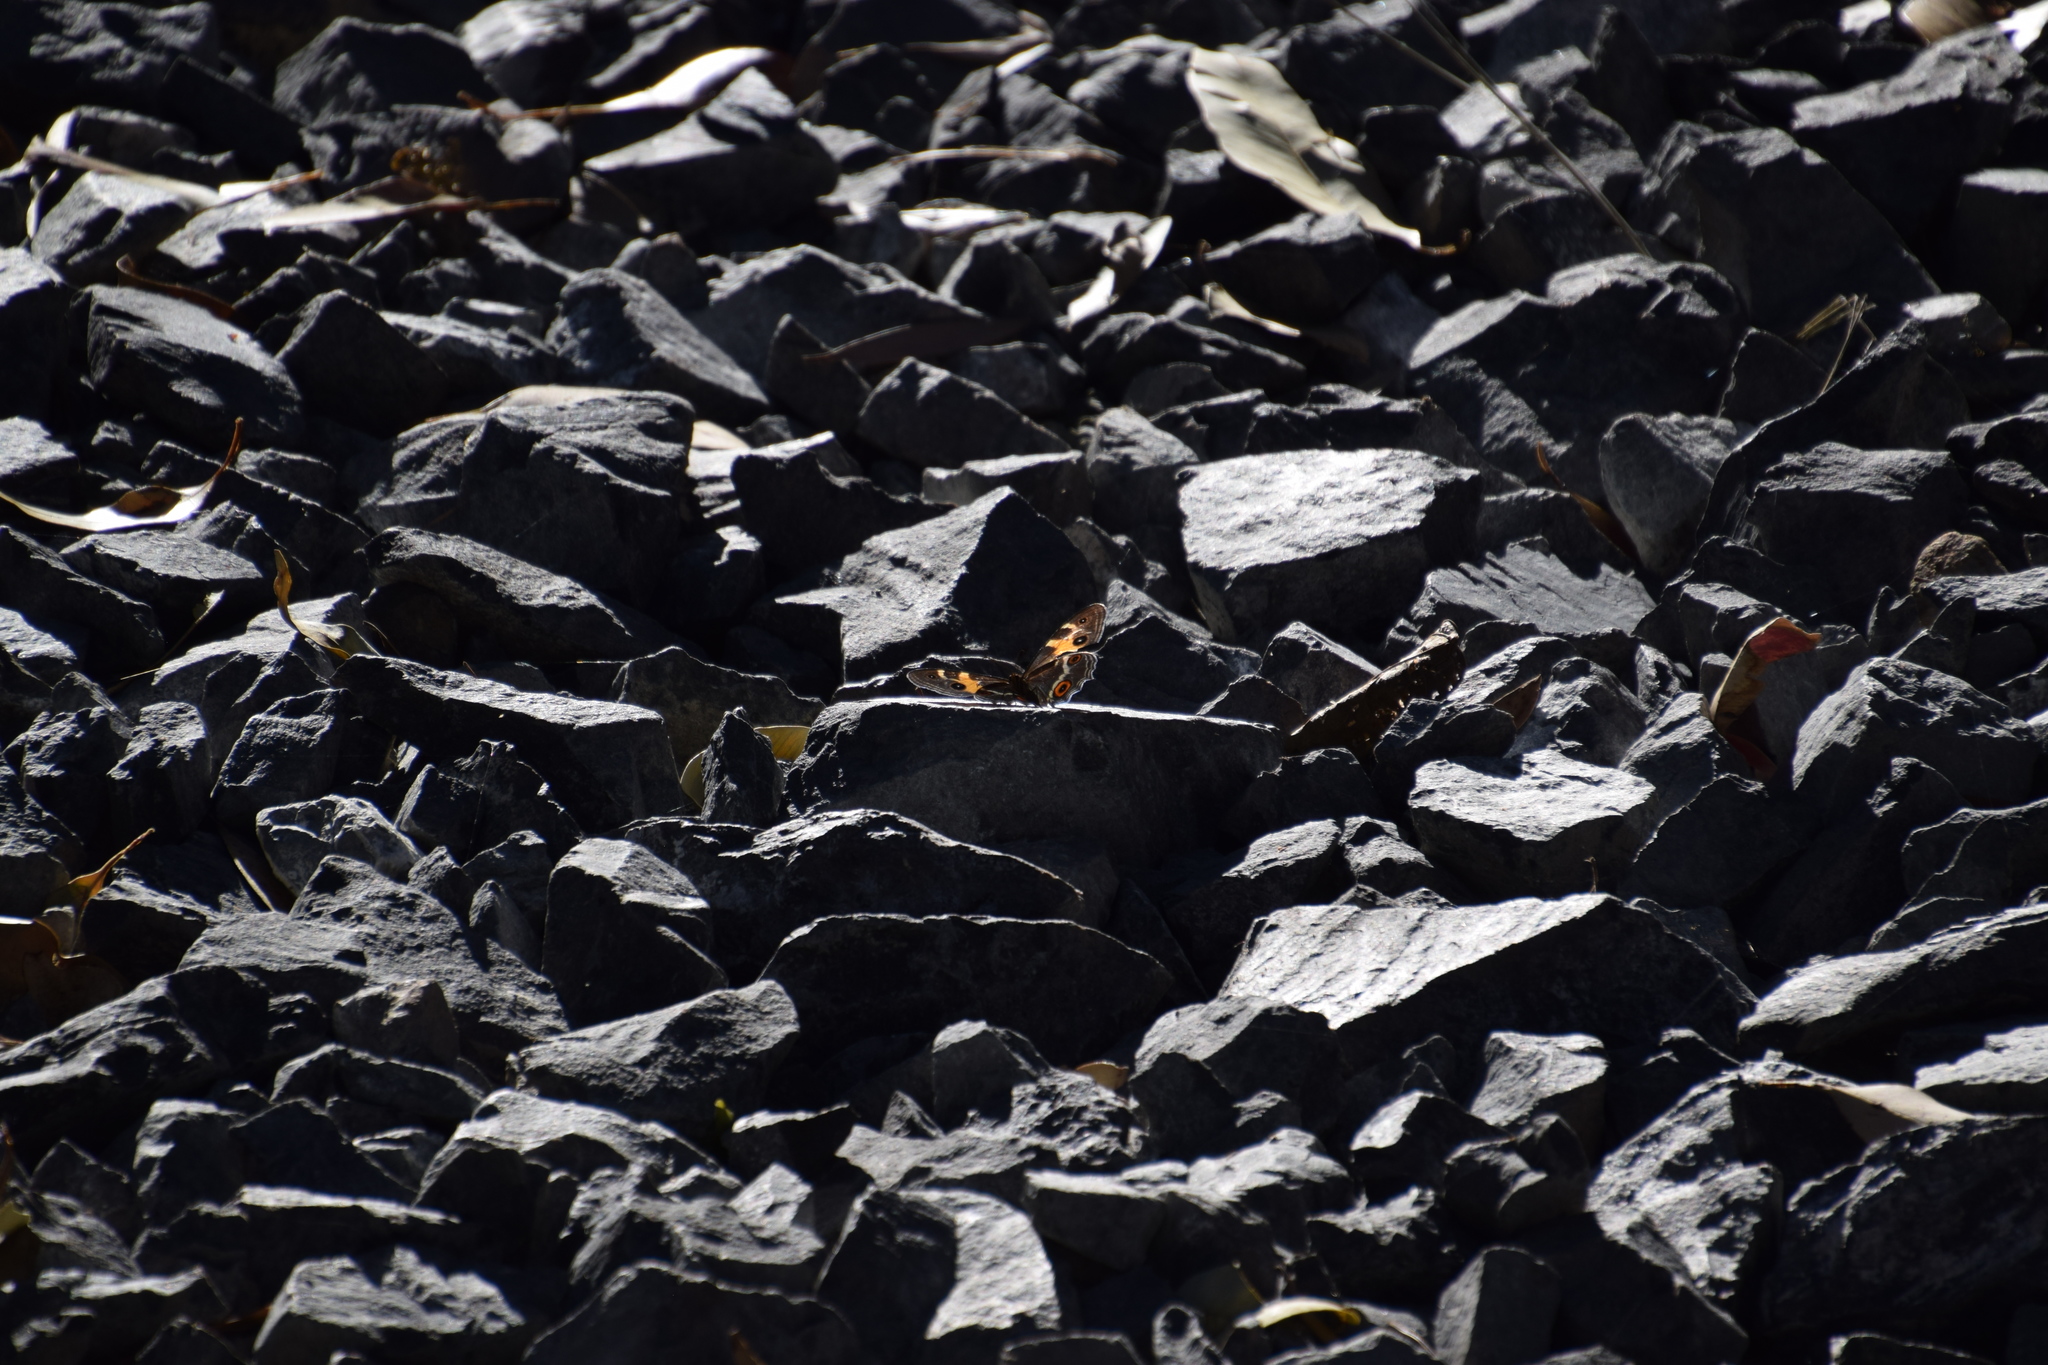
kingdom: Animalia
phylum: Arthropoda
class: Insecta
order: Lepidoptera
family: Nymphalidae
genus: Tisiphone
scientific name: Tisiphone abeona
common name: Swordgrass brown
